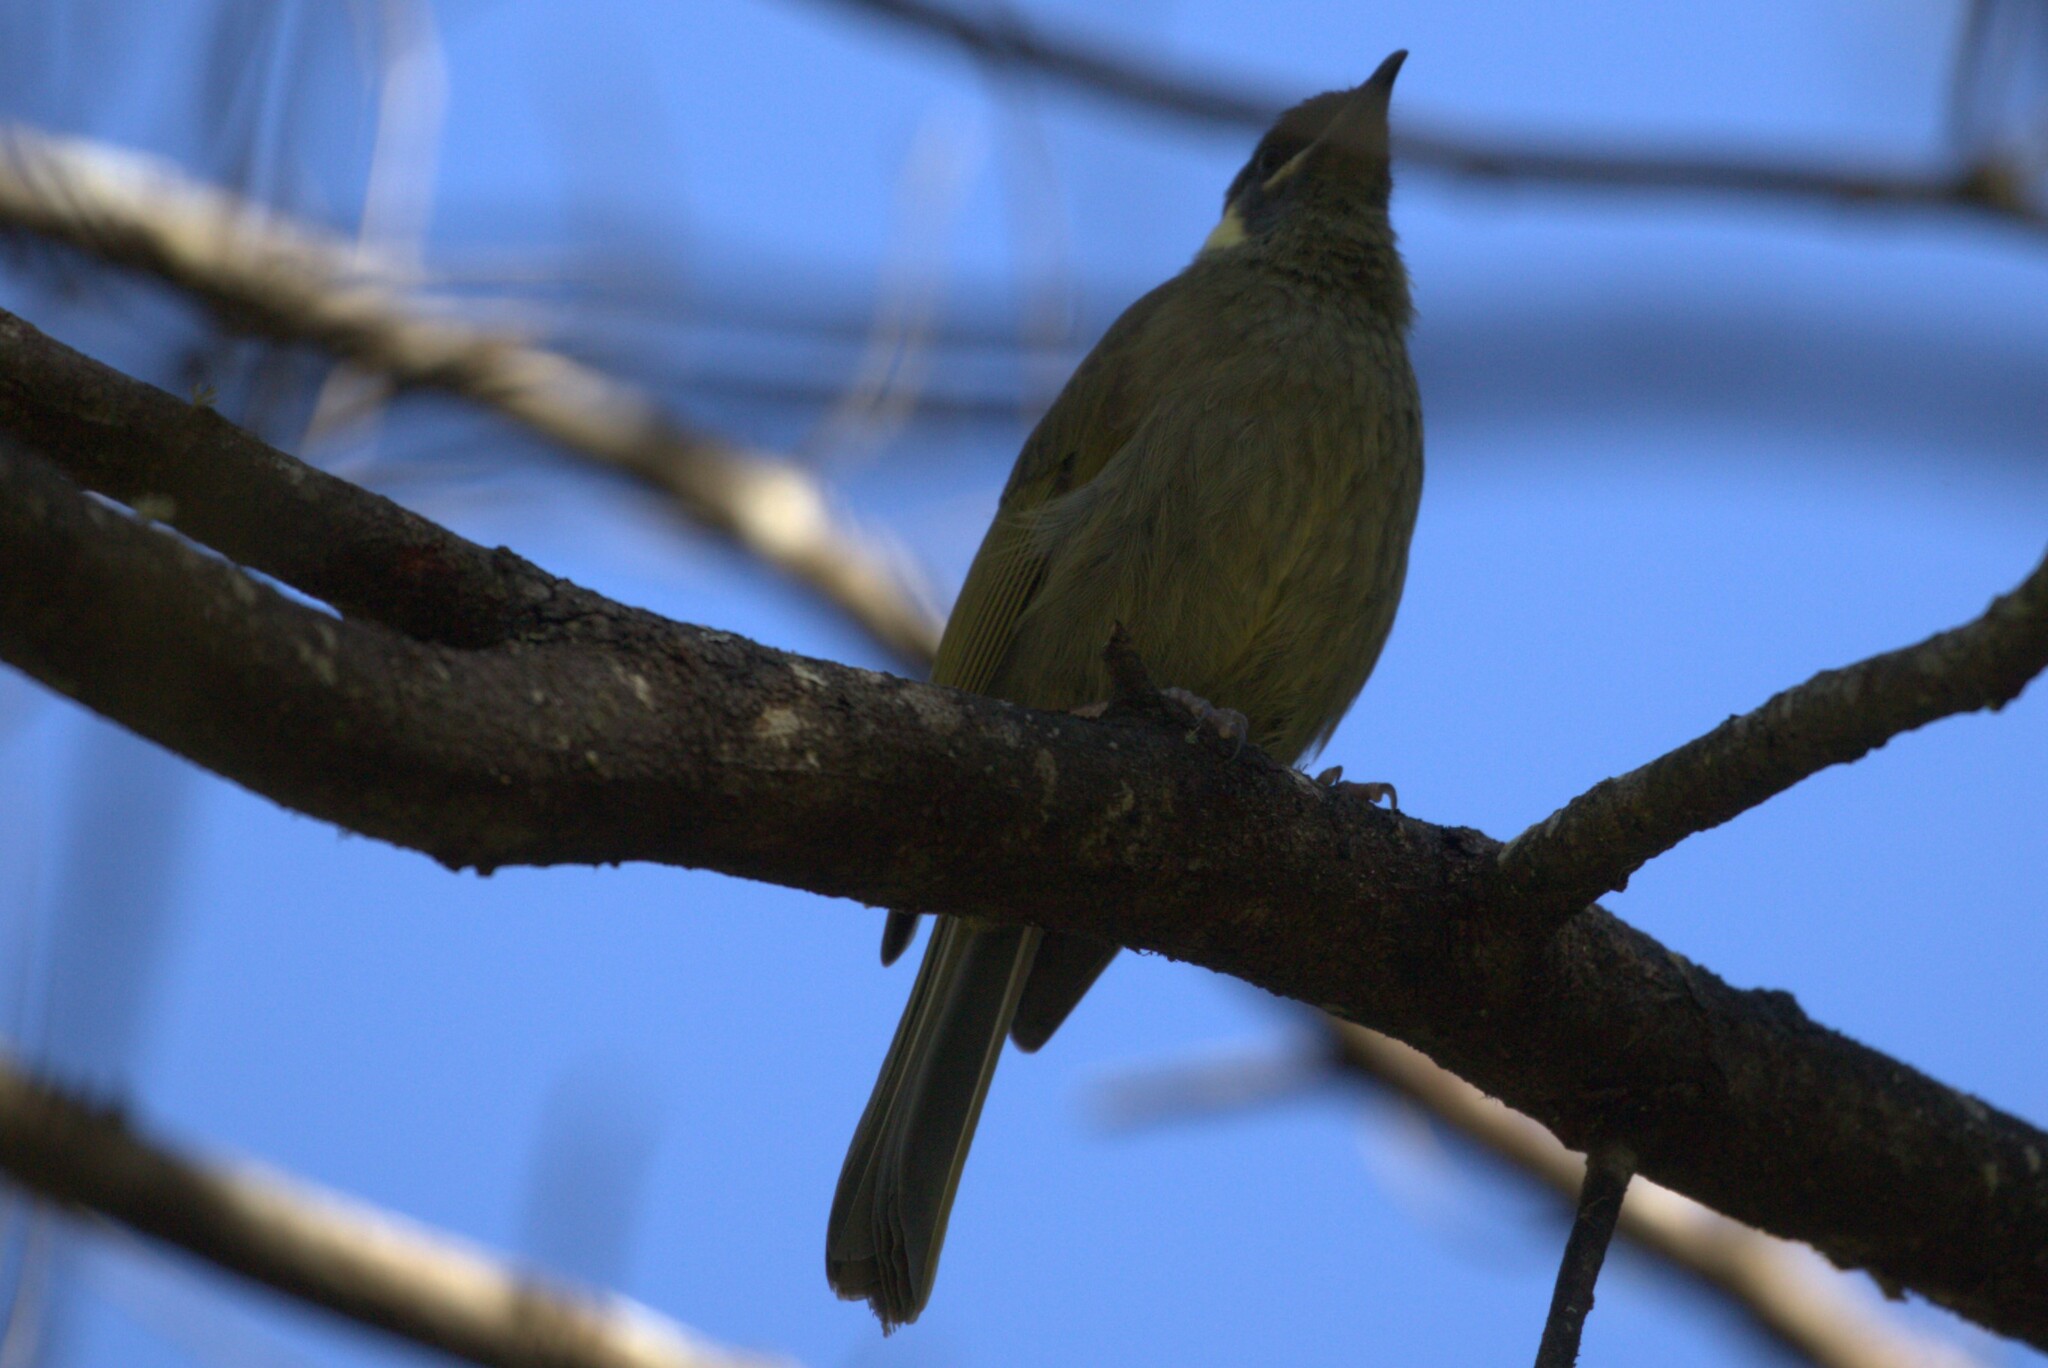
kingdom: Animalia
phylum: Chordata
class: Aves
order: Passeriformes
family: Meliphagidae
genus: Meliphaga
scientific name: Meliphaga lewinii
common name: Lewin's honeyeater
